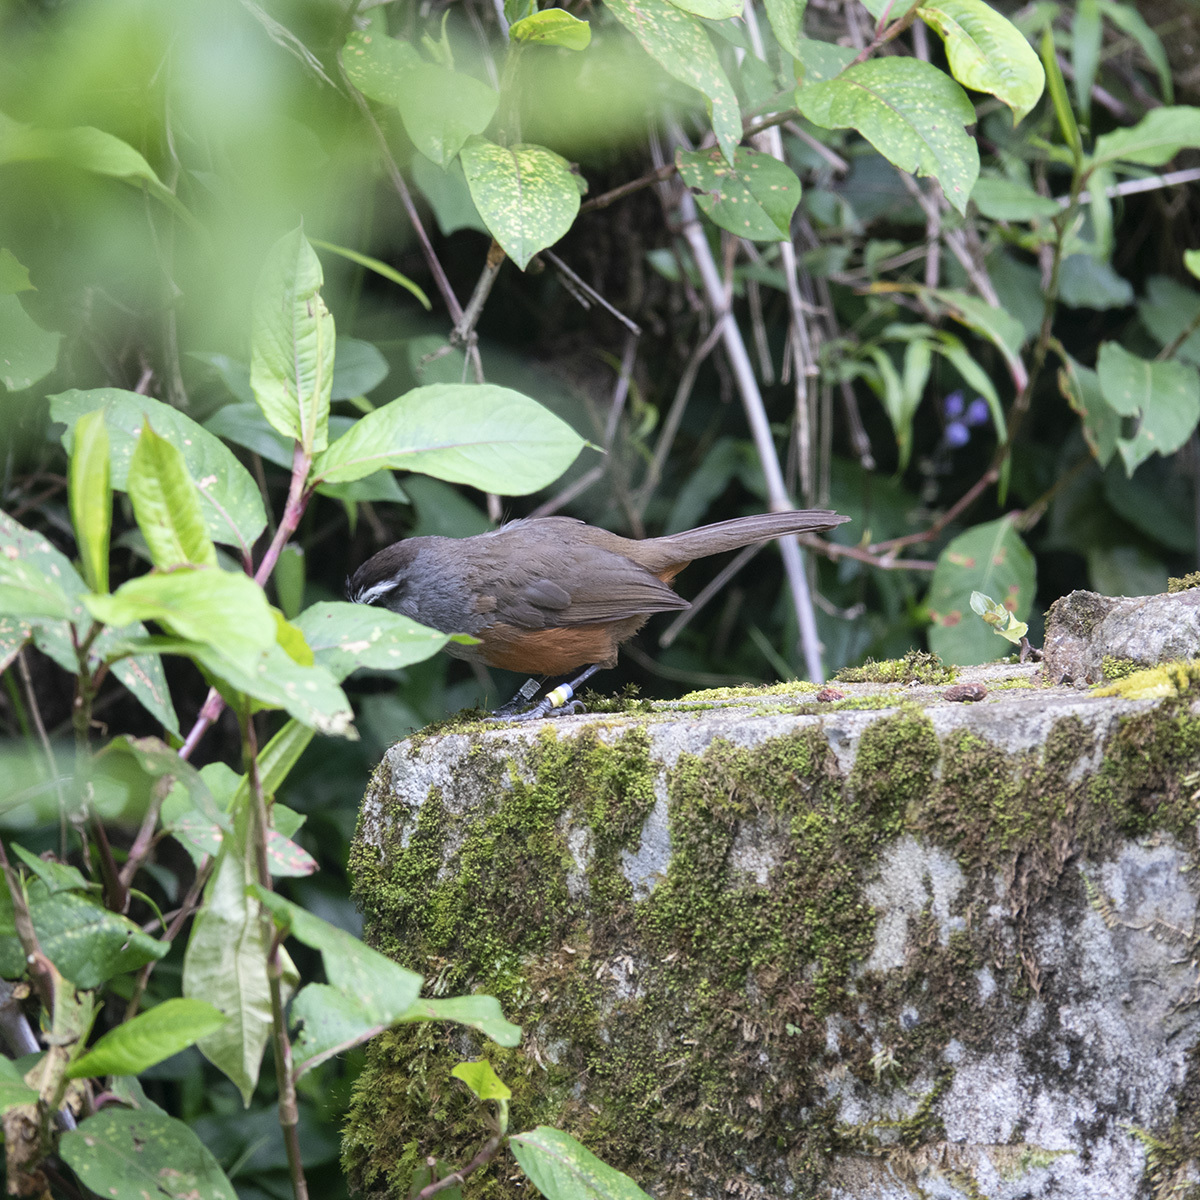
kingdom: Animalia
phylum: Chordata
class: Aves
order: Passeriformes
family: Leiothrichidae
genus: Trochalopteron
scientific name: Trochalopteron fairbanki
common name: Kerala laughingthrush
